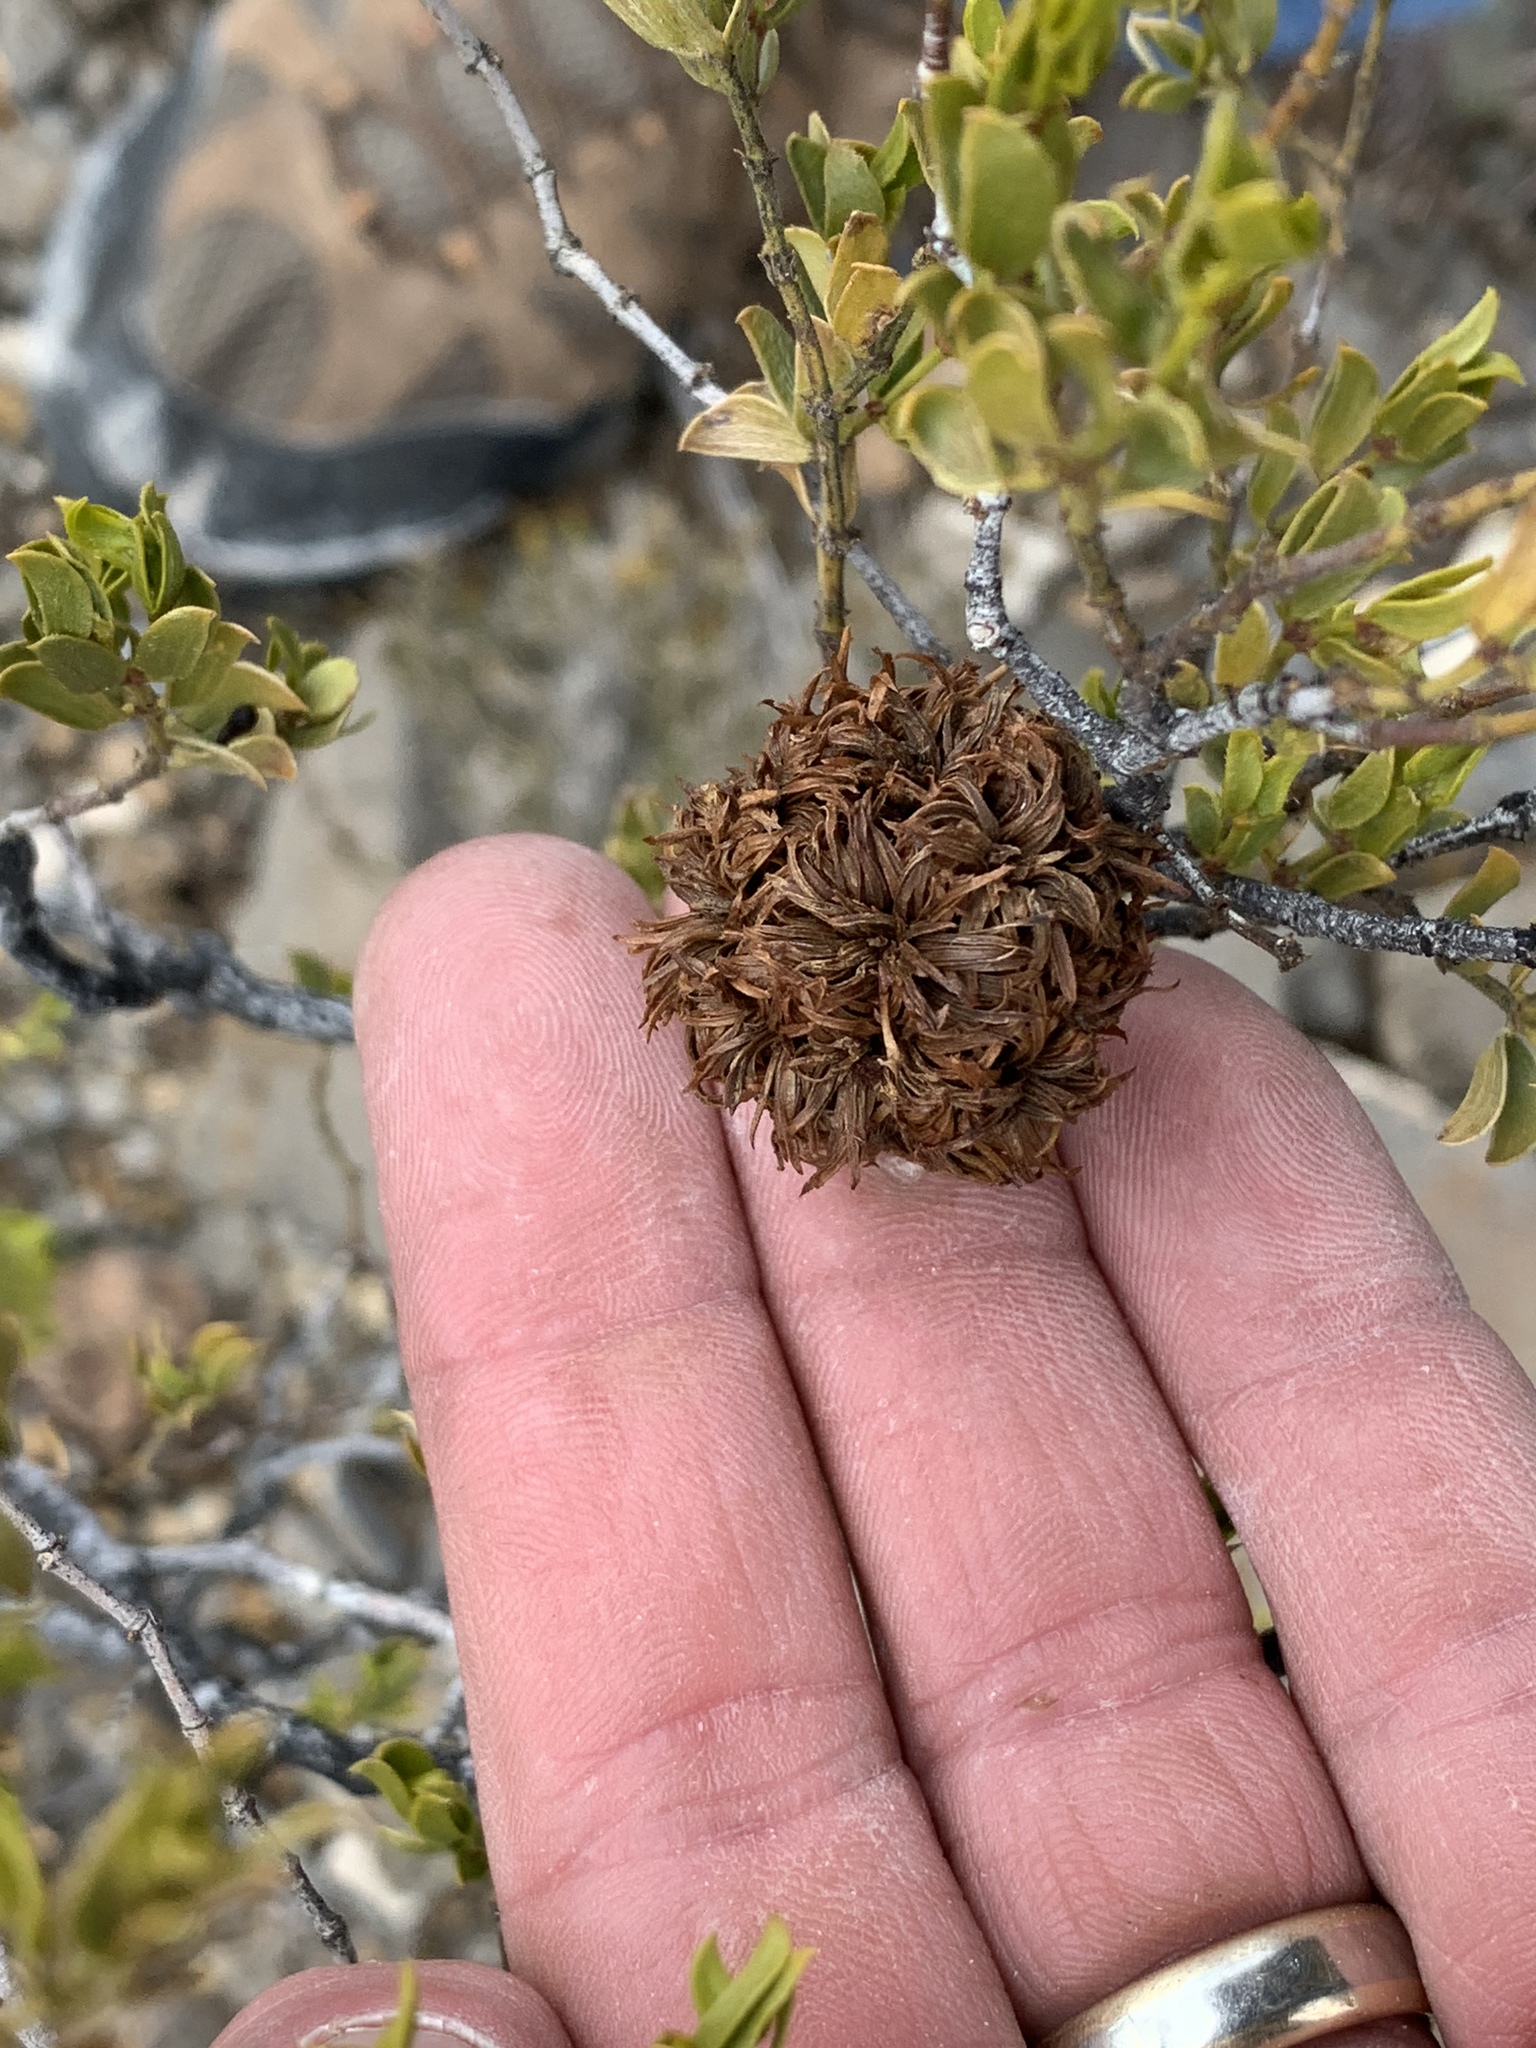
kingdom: Animalia
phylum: Arthropoda
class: Insecta
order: Diptera
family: Cecidomyiidae
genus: Asphondylia
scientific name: Asphondylia auripila
